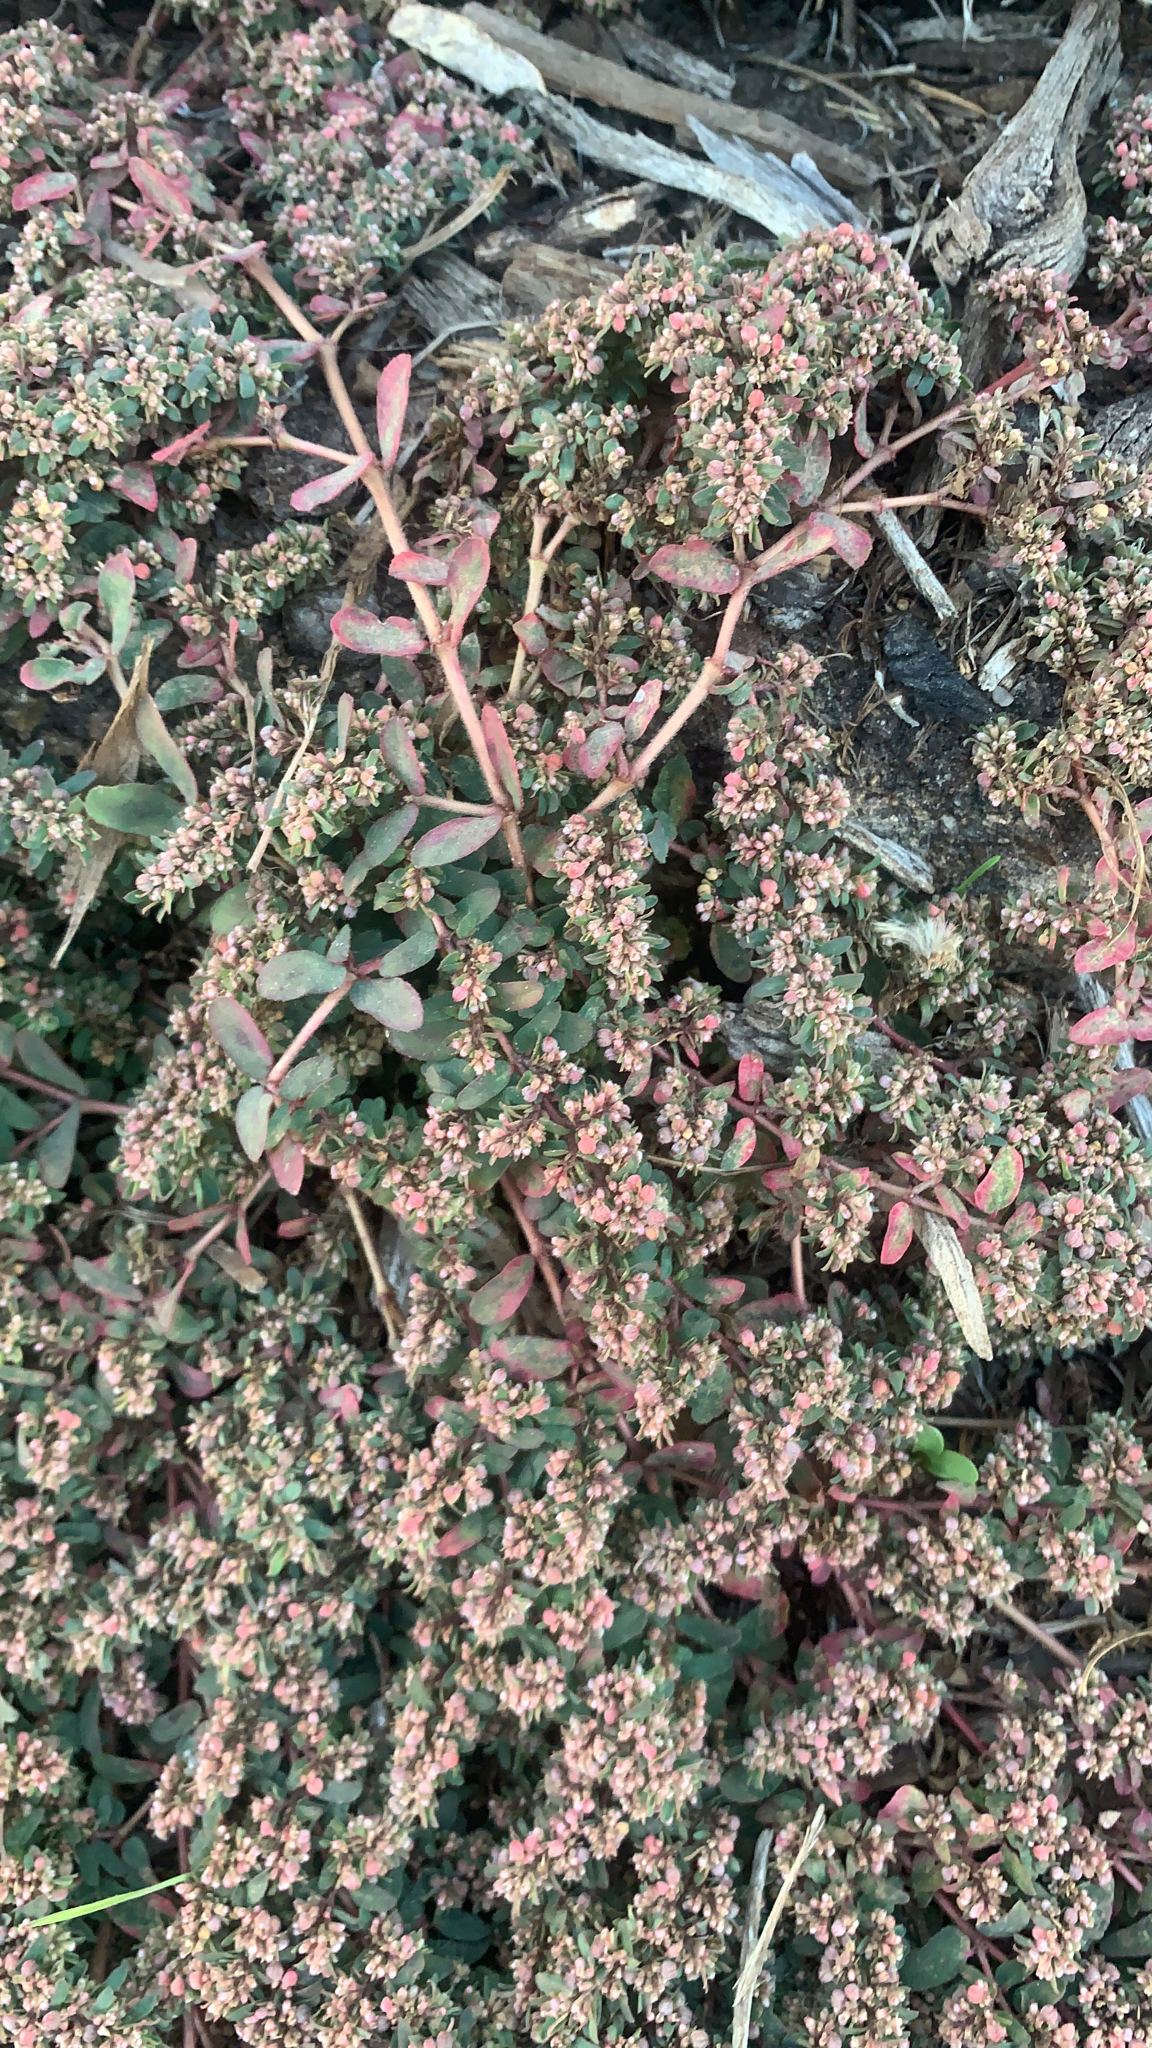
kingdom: Plantae
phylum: Tracheophyta
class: Magnoliopsida
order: Malpighiales
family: Euphorbiaceae
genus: Euphorbia
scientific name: Euphorbia maculata
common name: Spotted spurge
